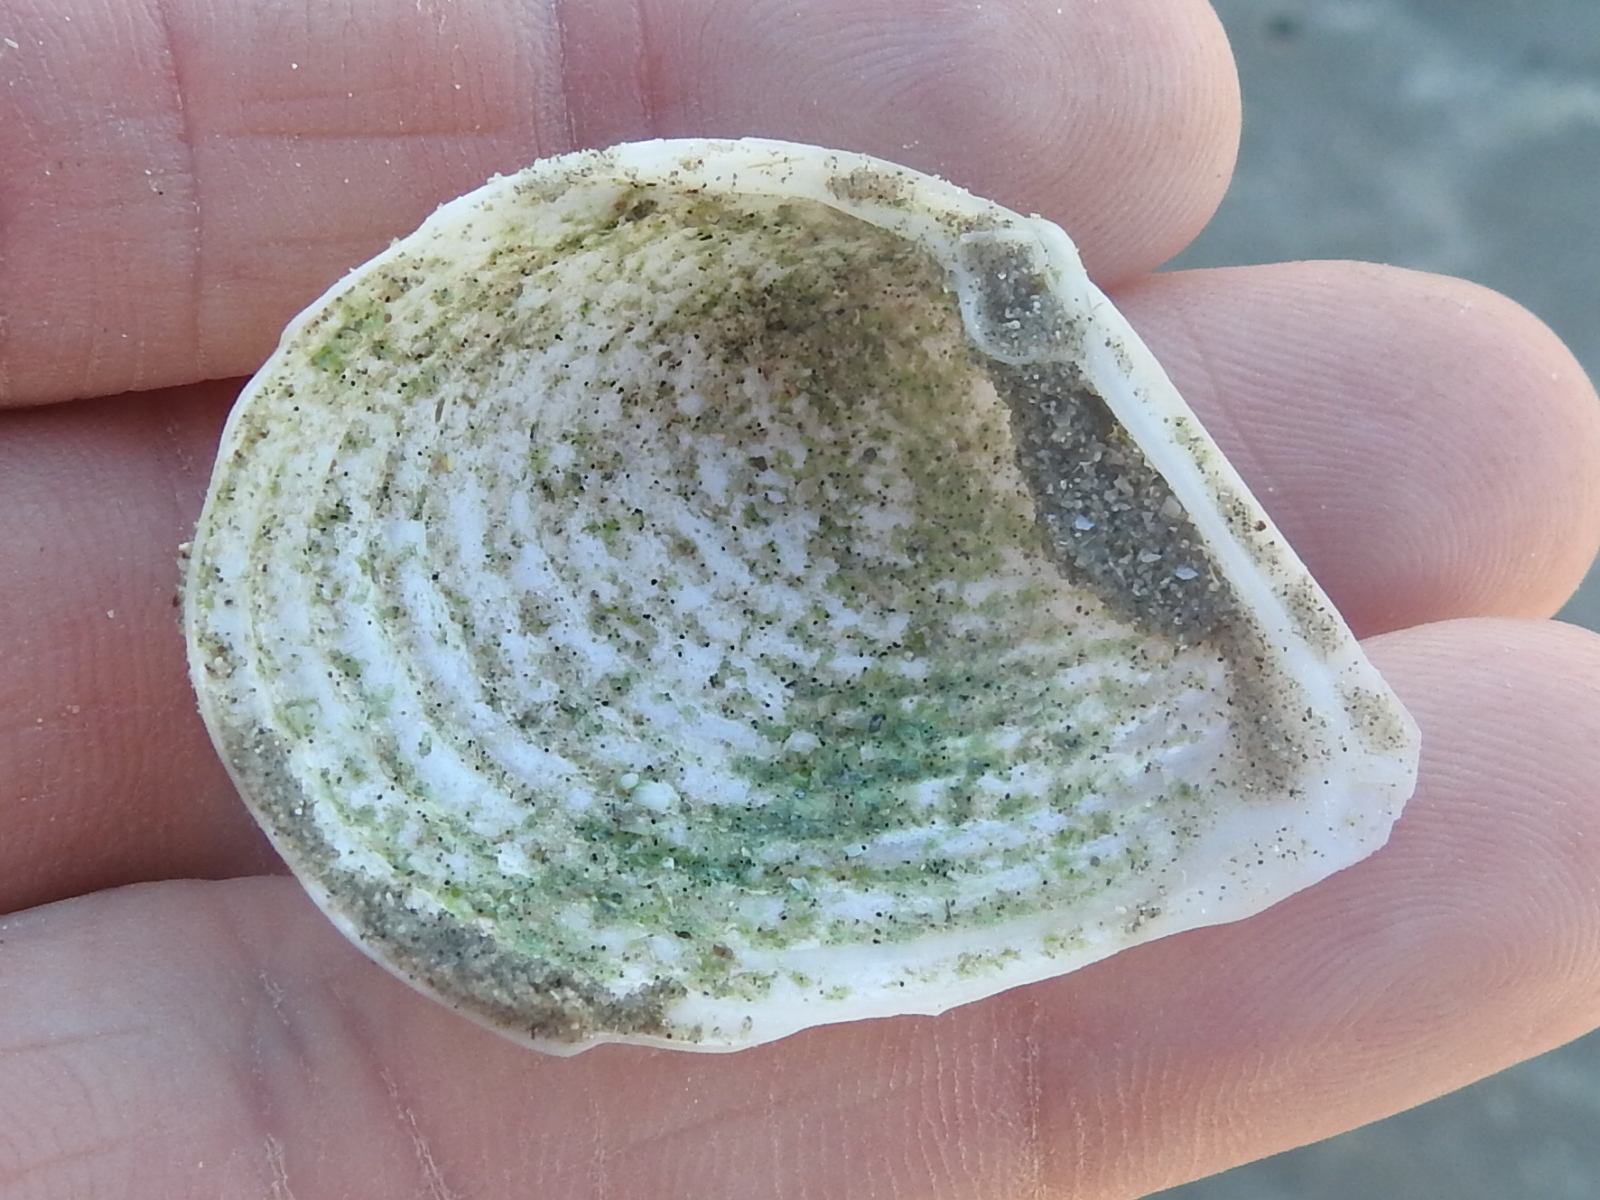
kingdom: Animalia
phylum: Mollusca
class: Bivalvia
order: Venerida
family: Anatinellidae
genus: Raeta
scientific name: Raeta plicatella
